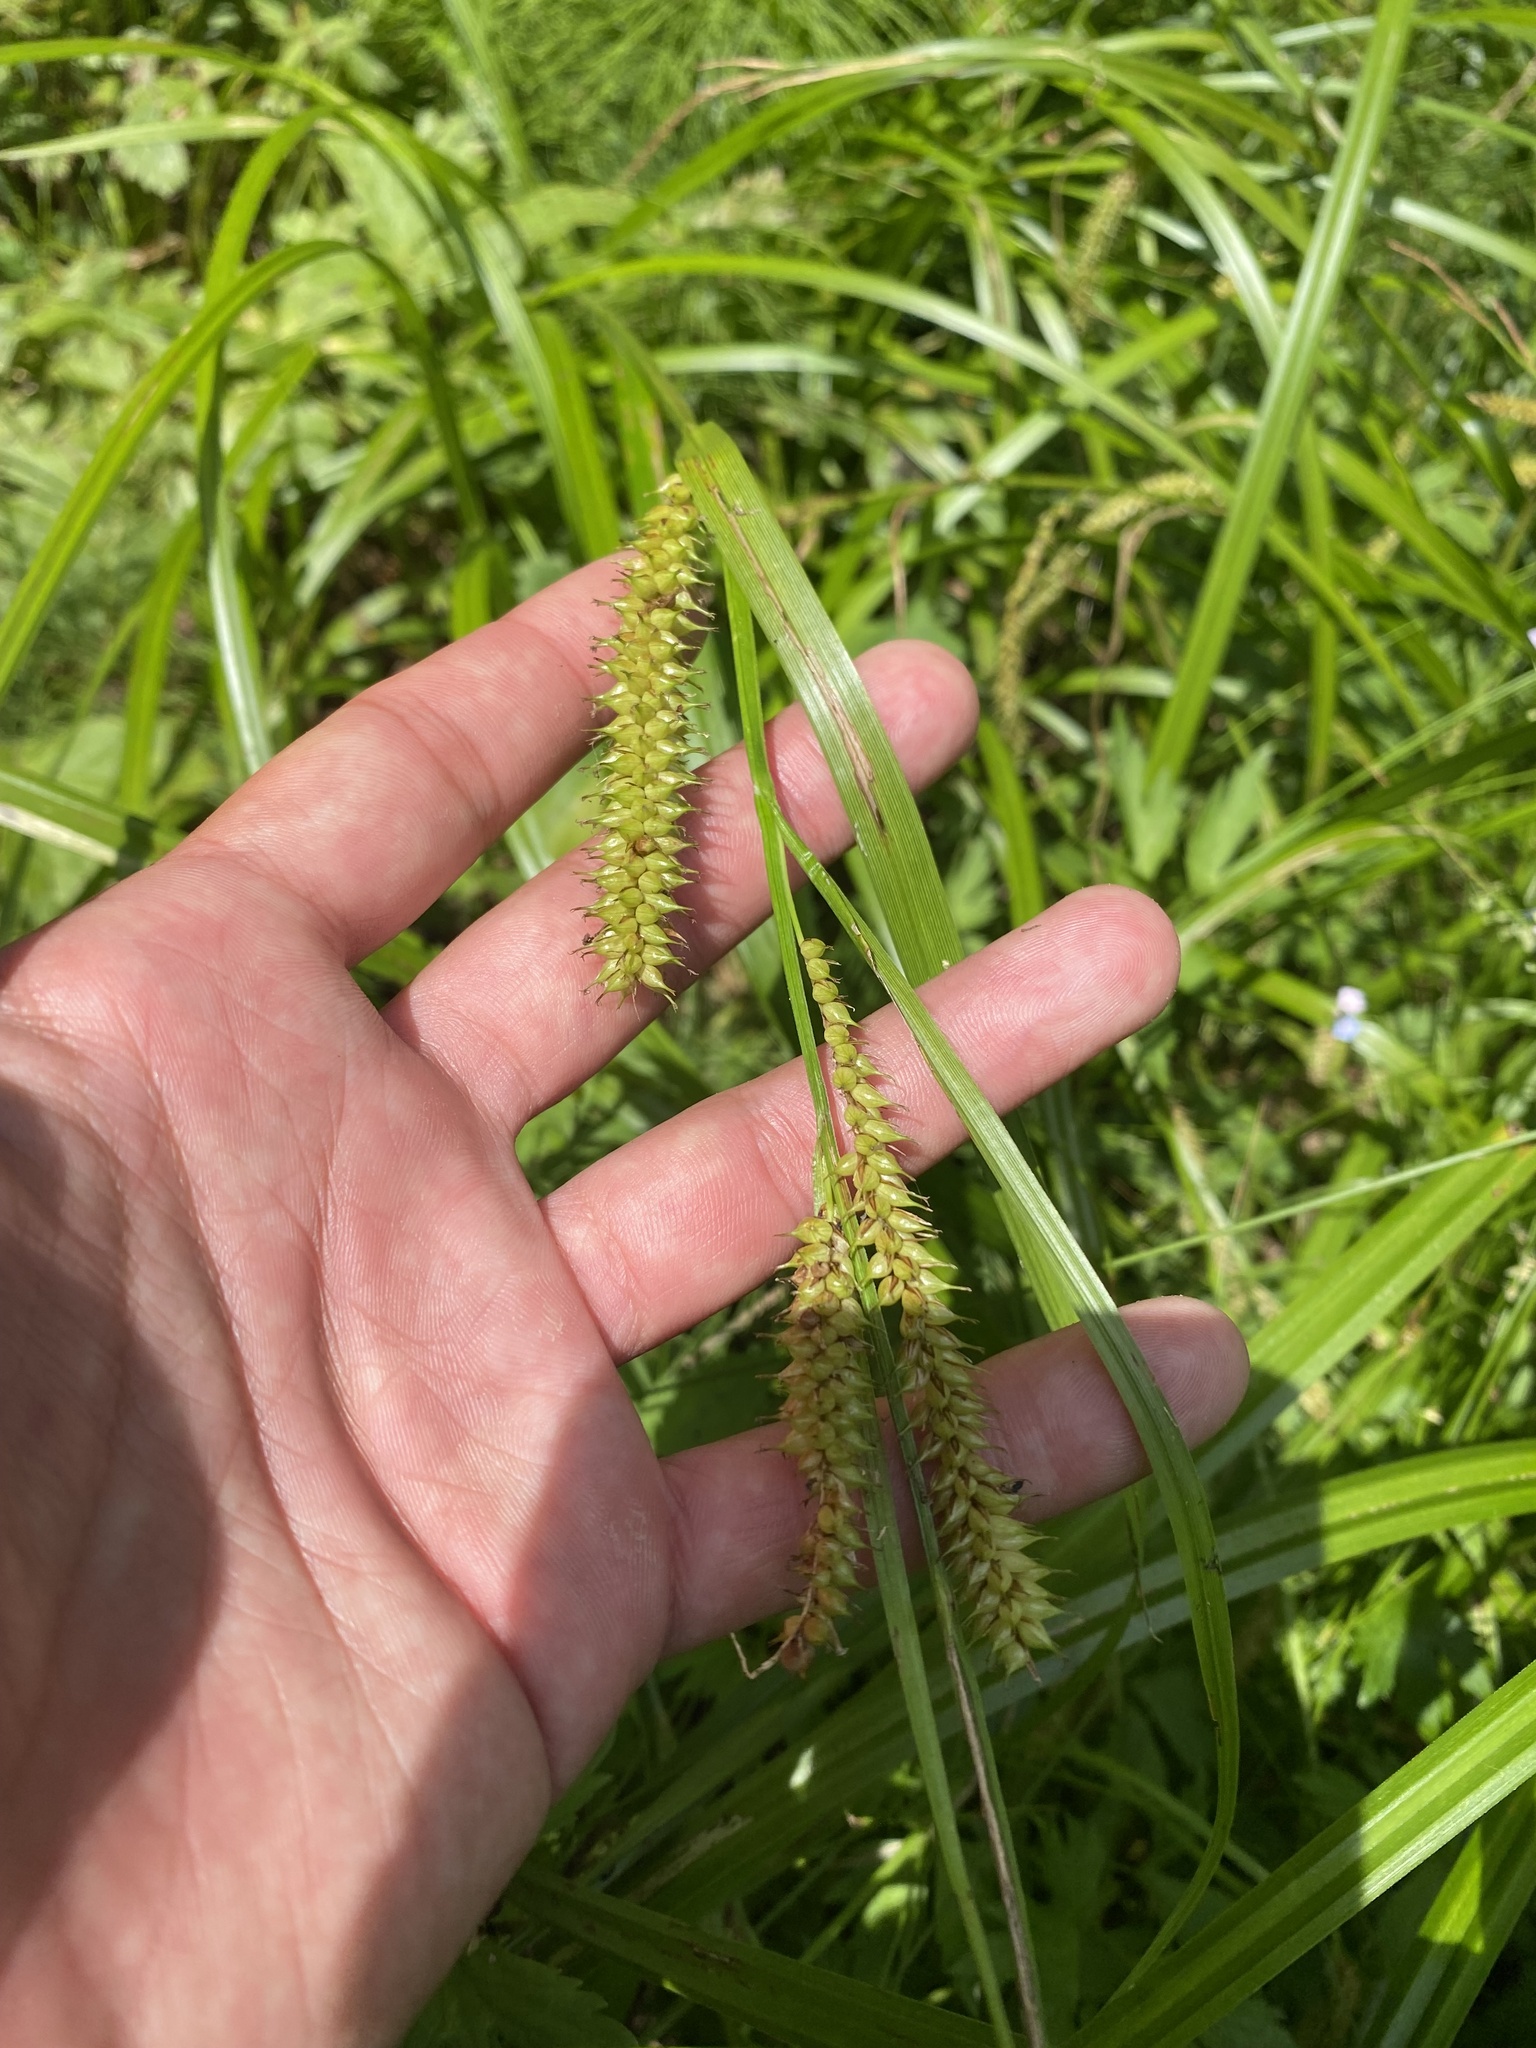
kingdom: Plantae
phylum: Tracheophyta
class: Liliopsida
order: Poales
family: Cyperaceae
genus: Carex
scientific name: Carex utriculata
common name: Beaked sedge
